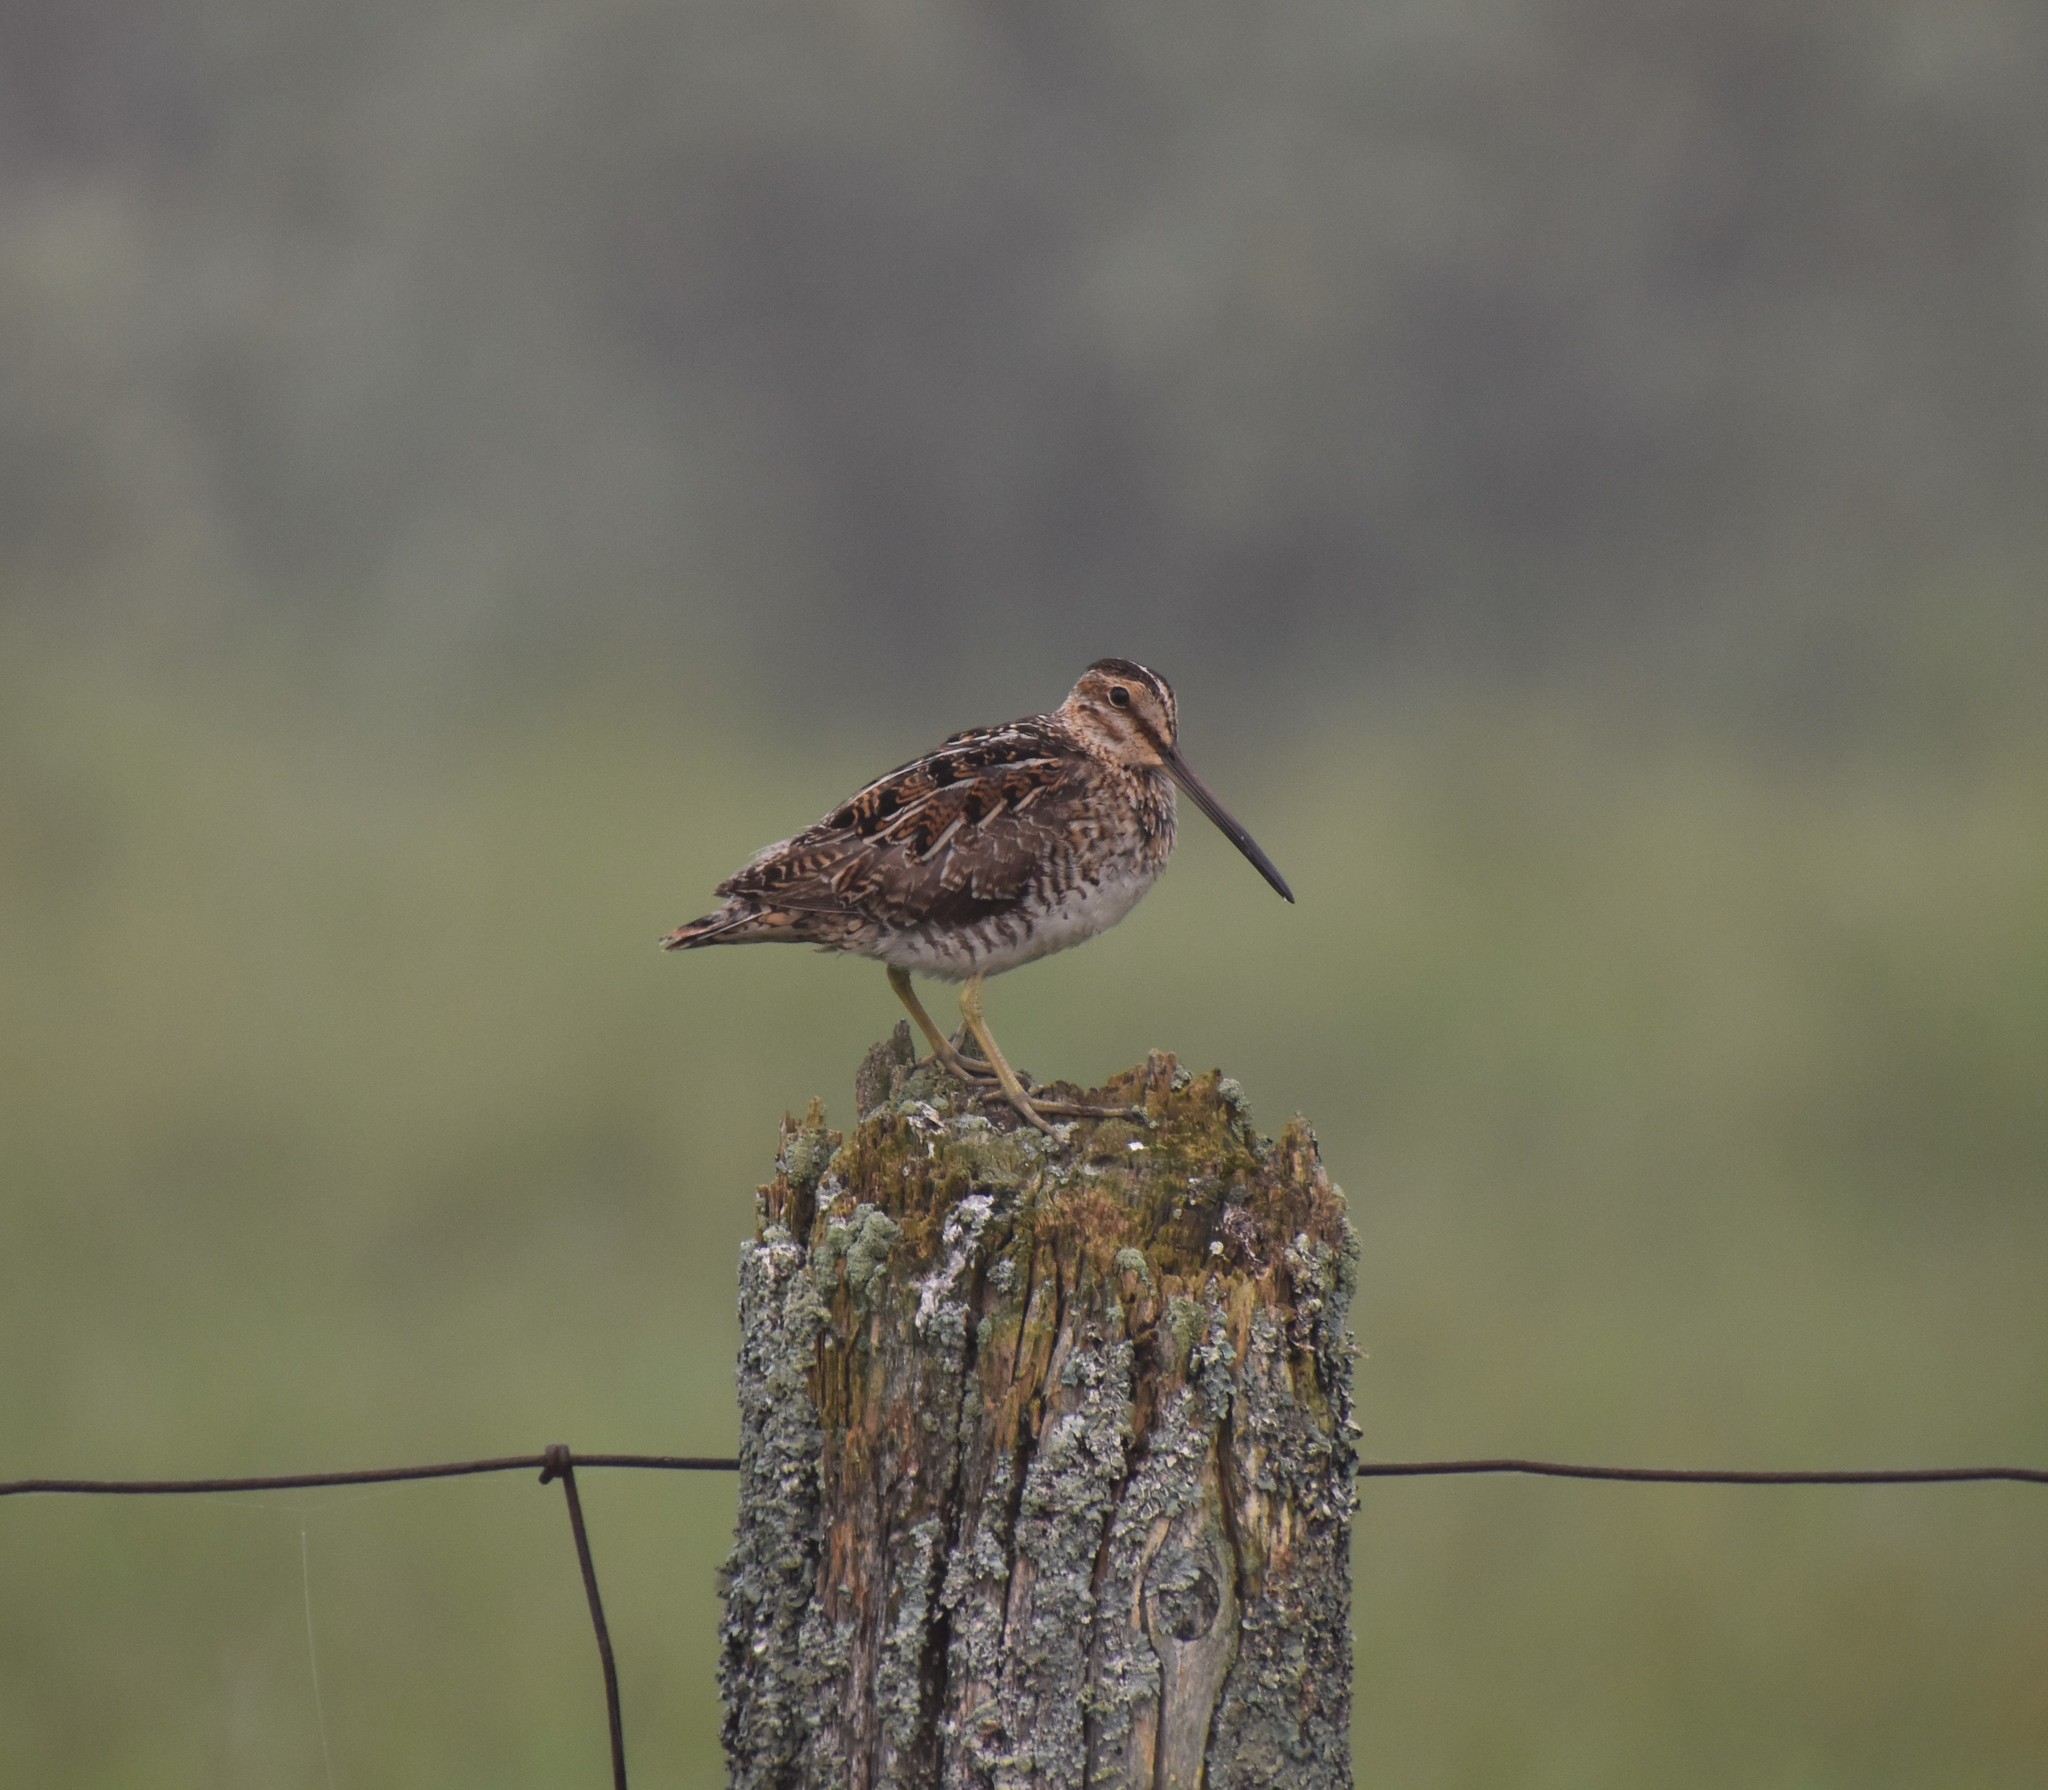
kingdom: Animalia
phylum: Chordata
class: Aves
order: Charadriiformes
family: Scolopacidae
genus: Gallinago
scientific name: Gallinago delicata
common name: Wilson's snipe
